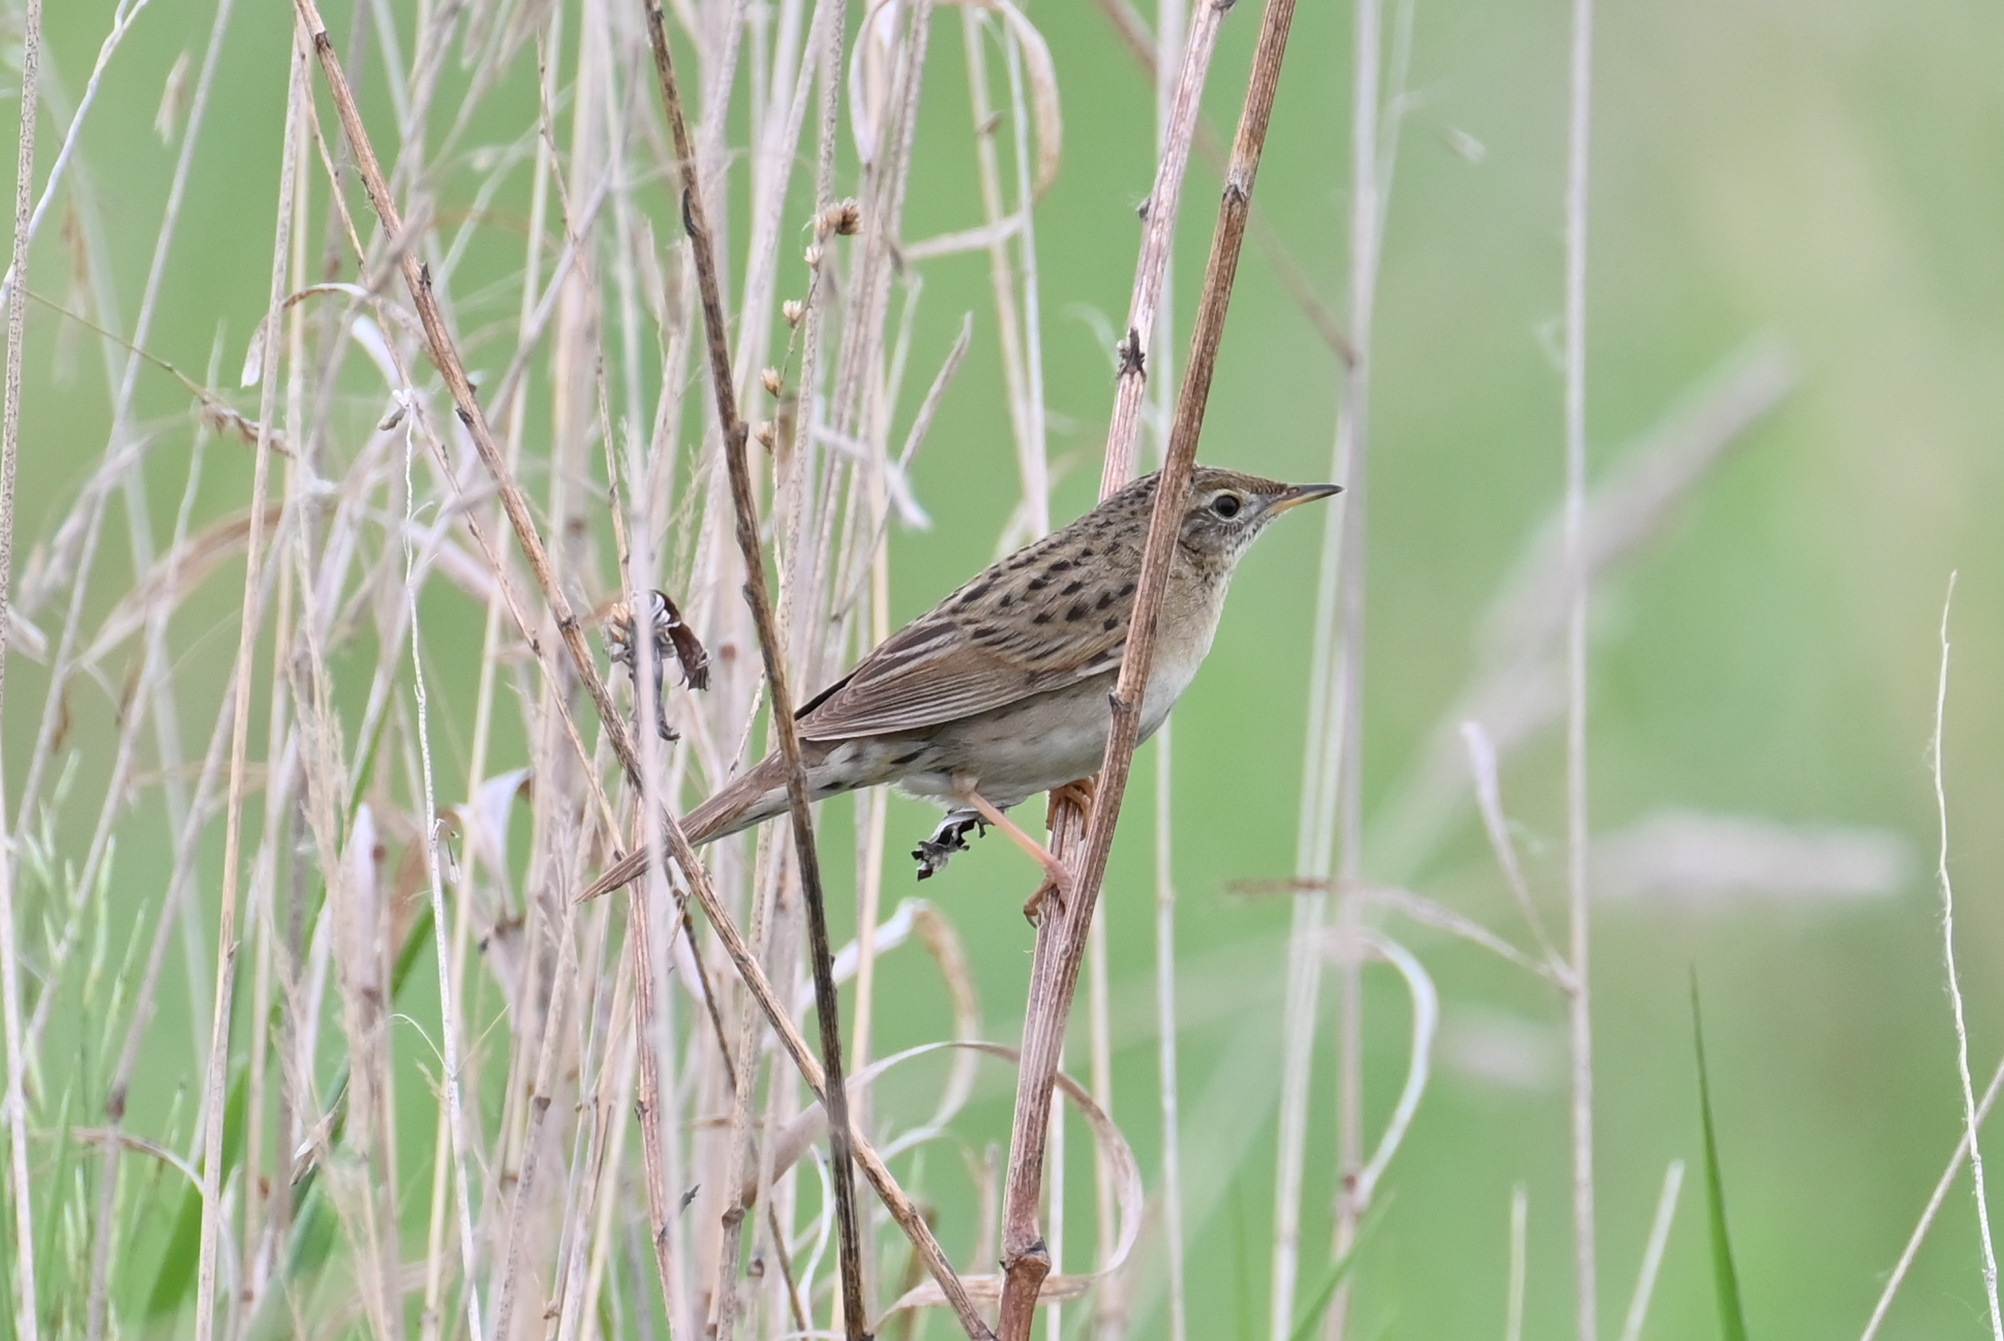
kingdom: Animalia
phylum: Chordata
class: Aves
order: Passeriformes
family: Locustellidae
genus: Locustella
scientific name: Locustella naevia
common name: Common grasshopper warbler
